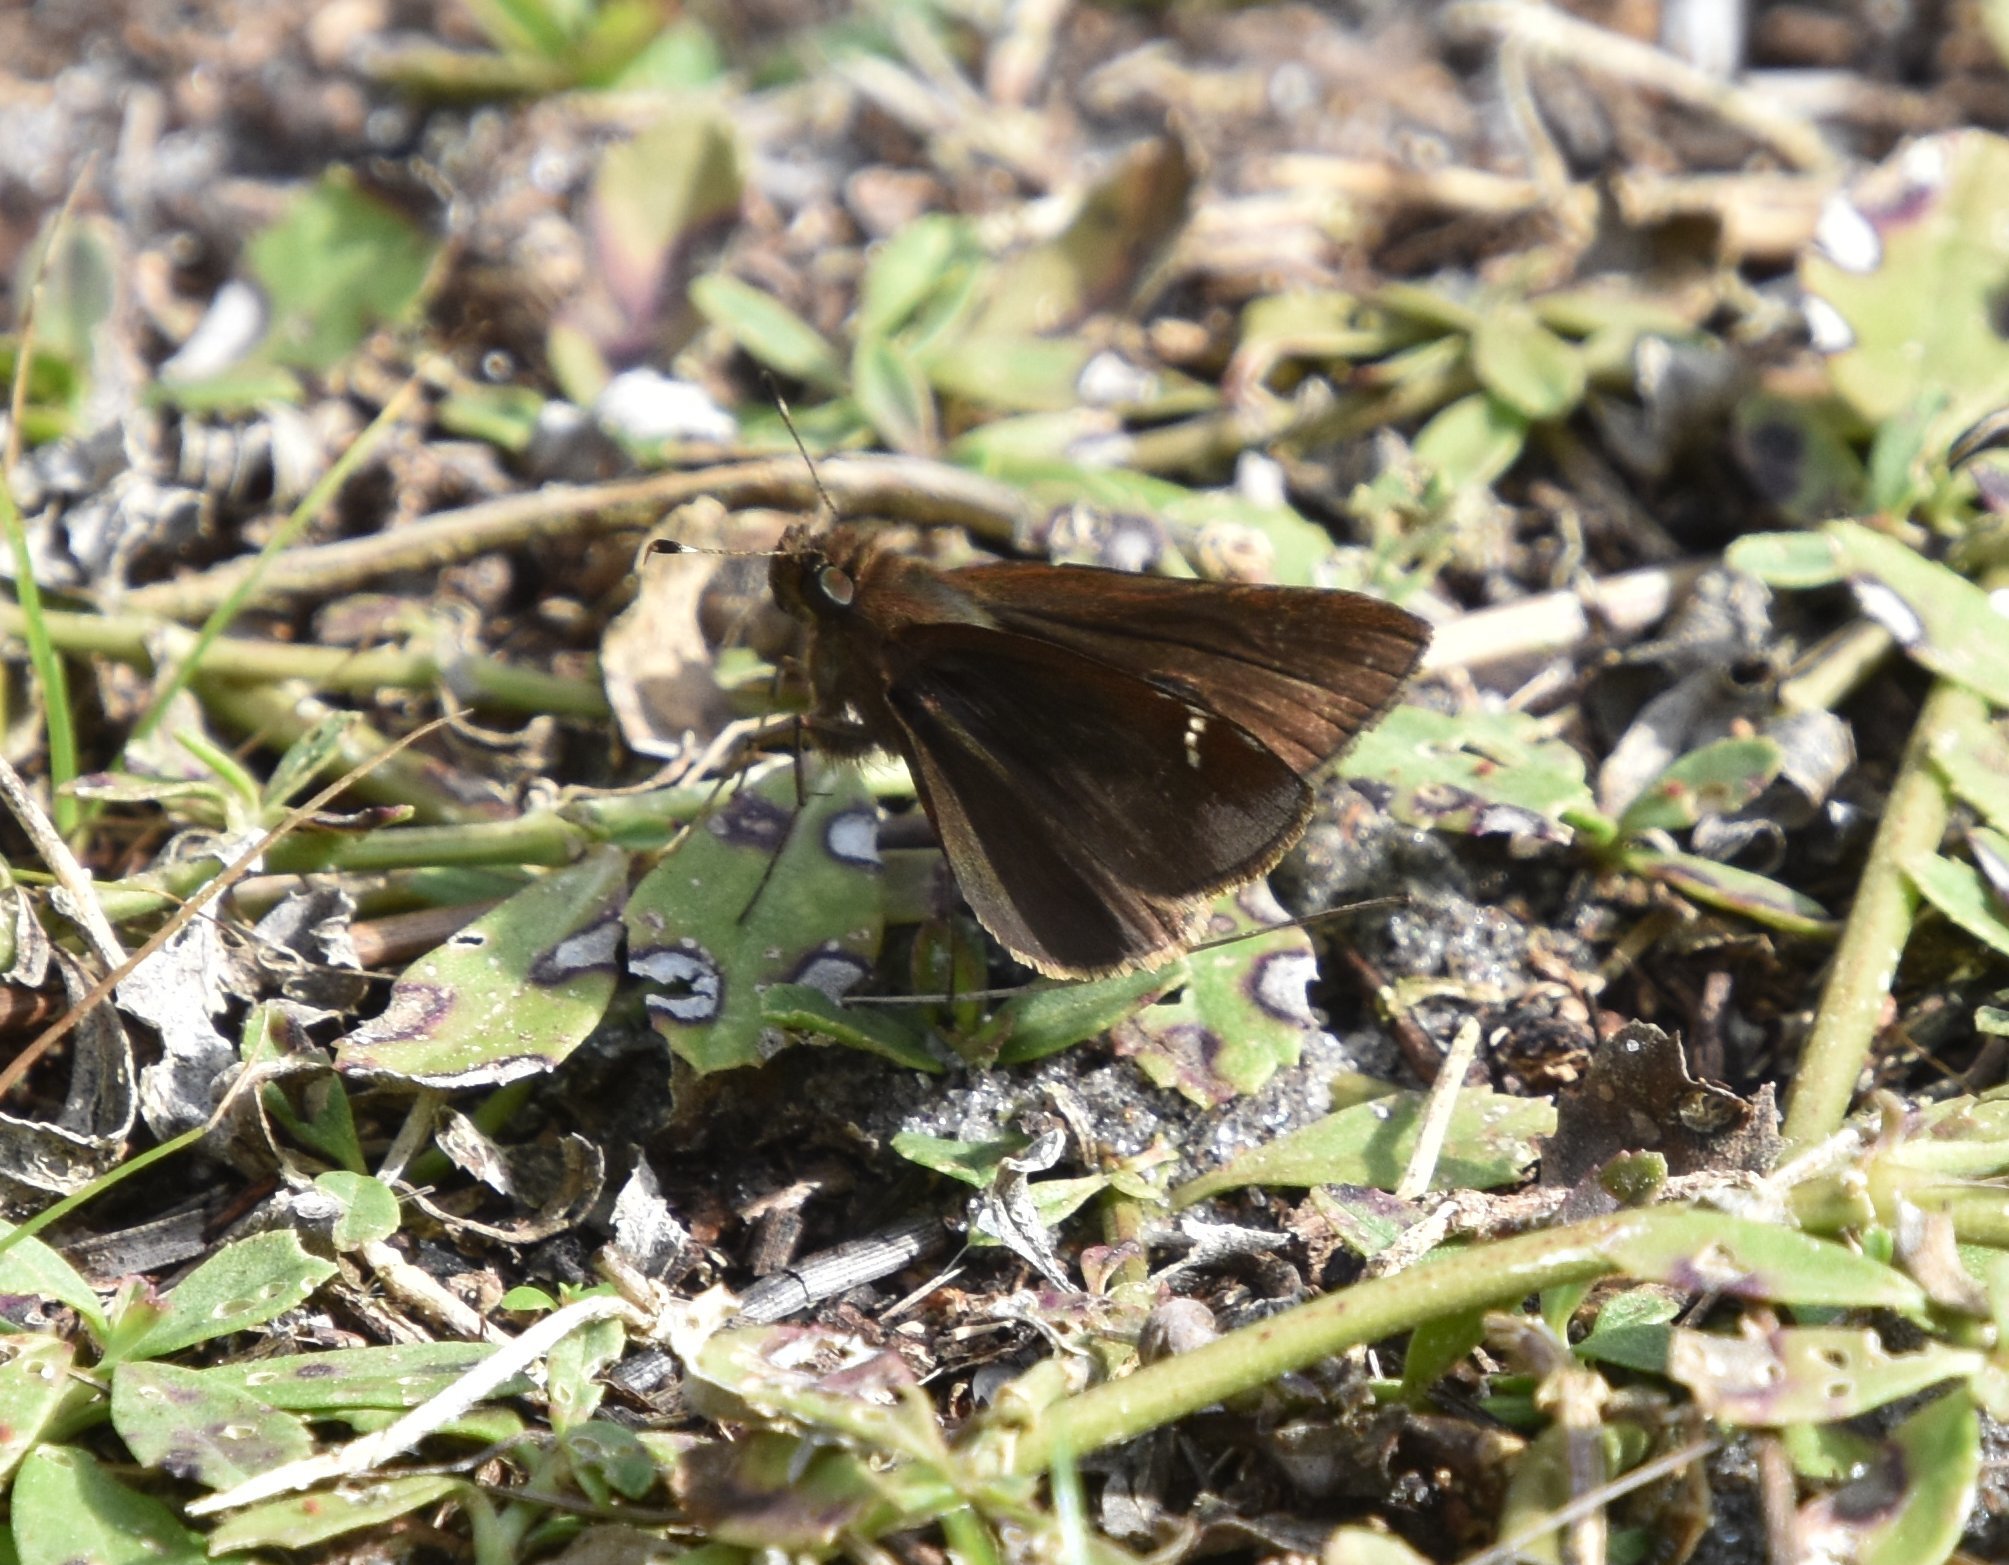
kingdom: Animalia
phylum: Arthropoda
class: Insecta
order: Lepidoptera
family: Hesperiidae
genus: Lerema
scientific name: Lerema accius
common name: Clouded skipper
